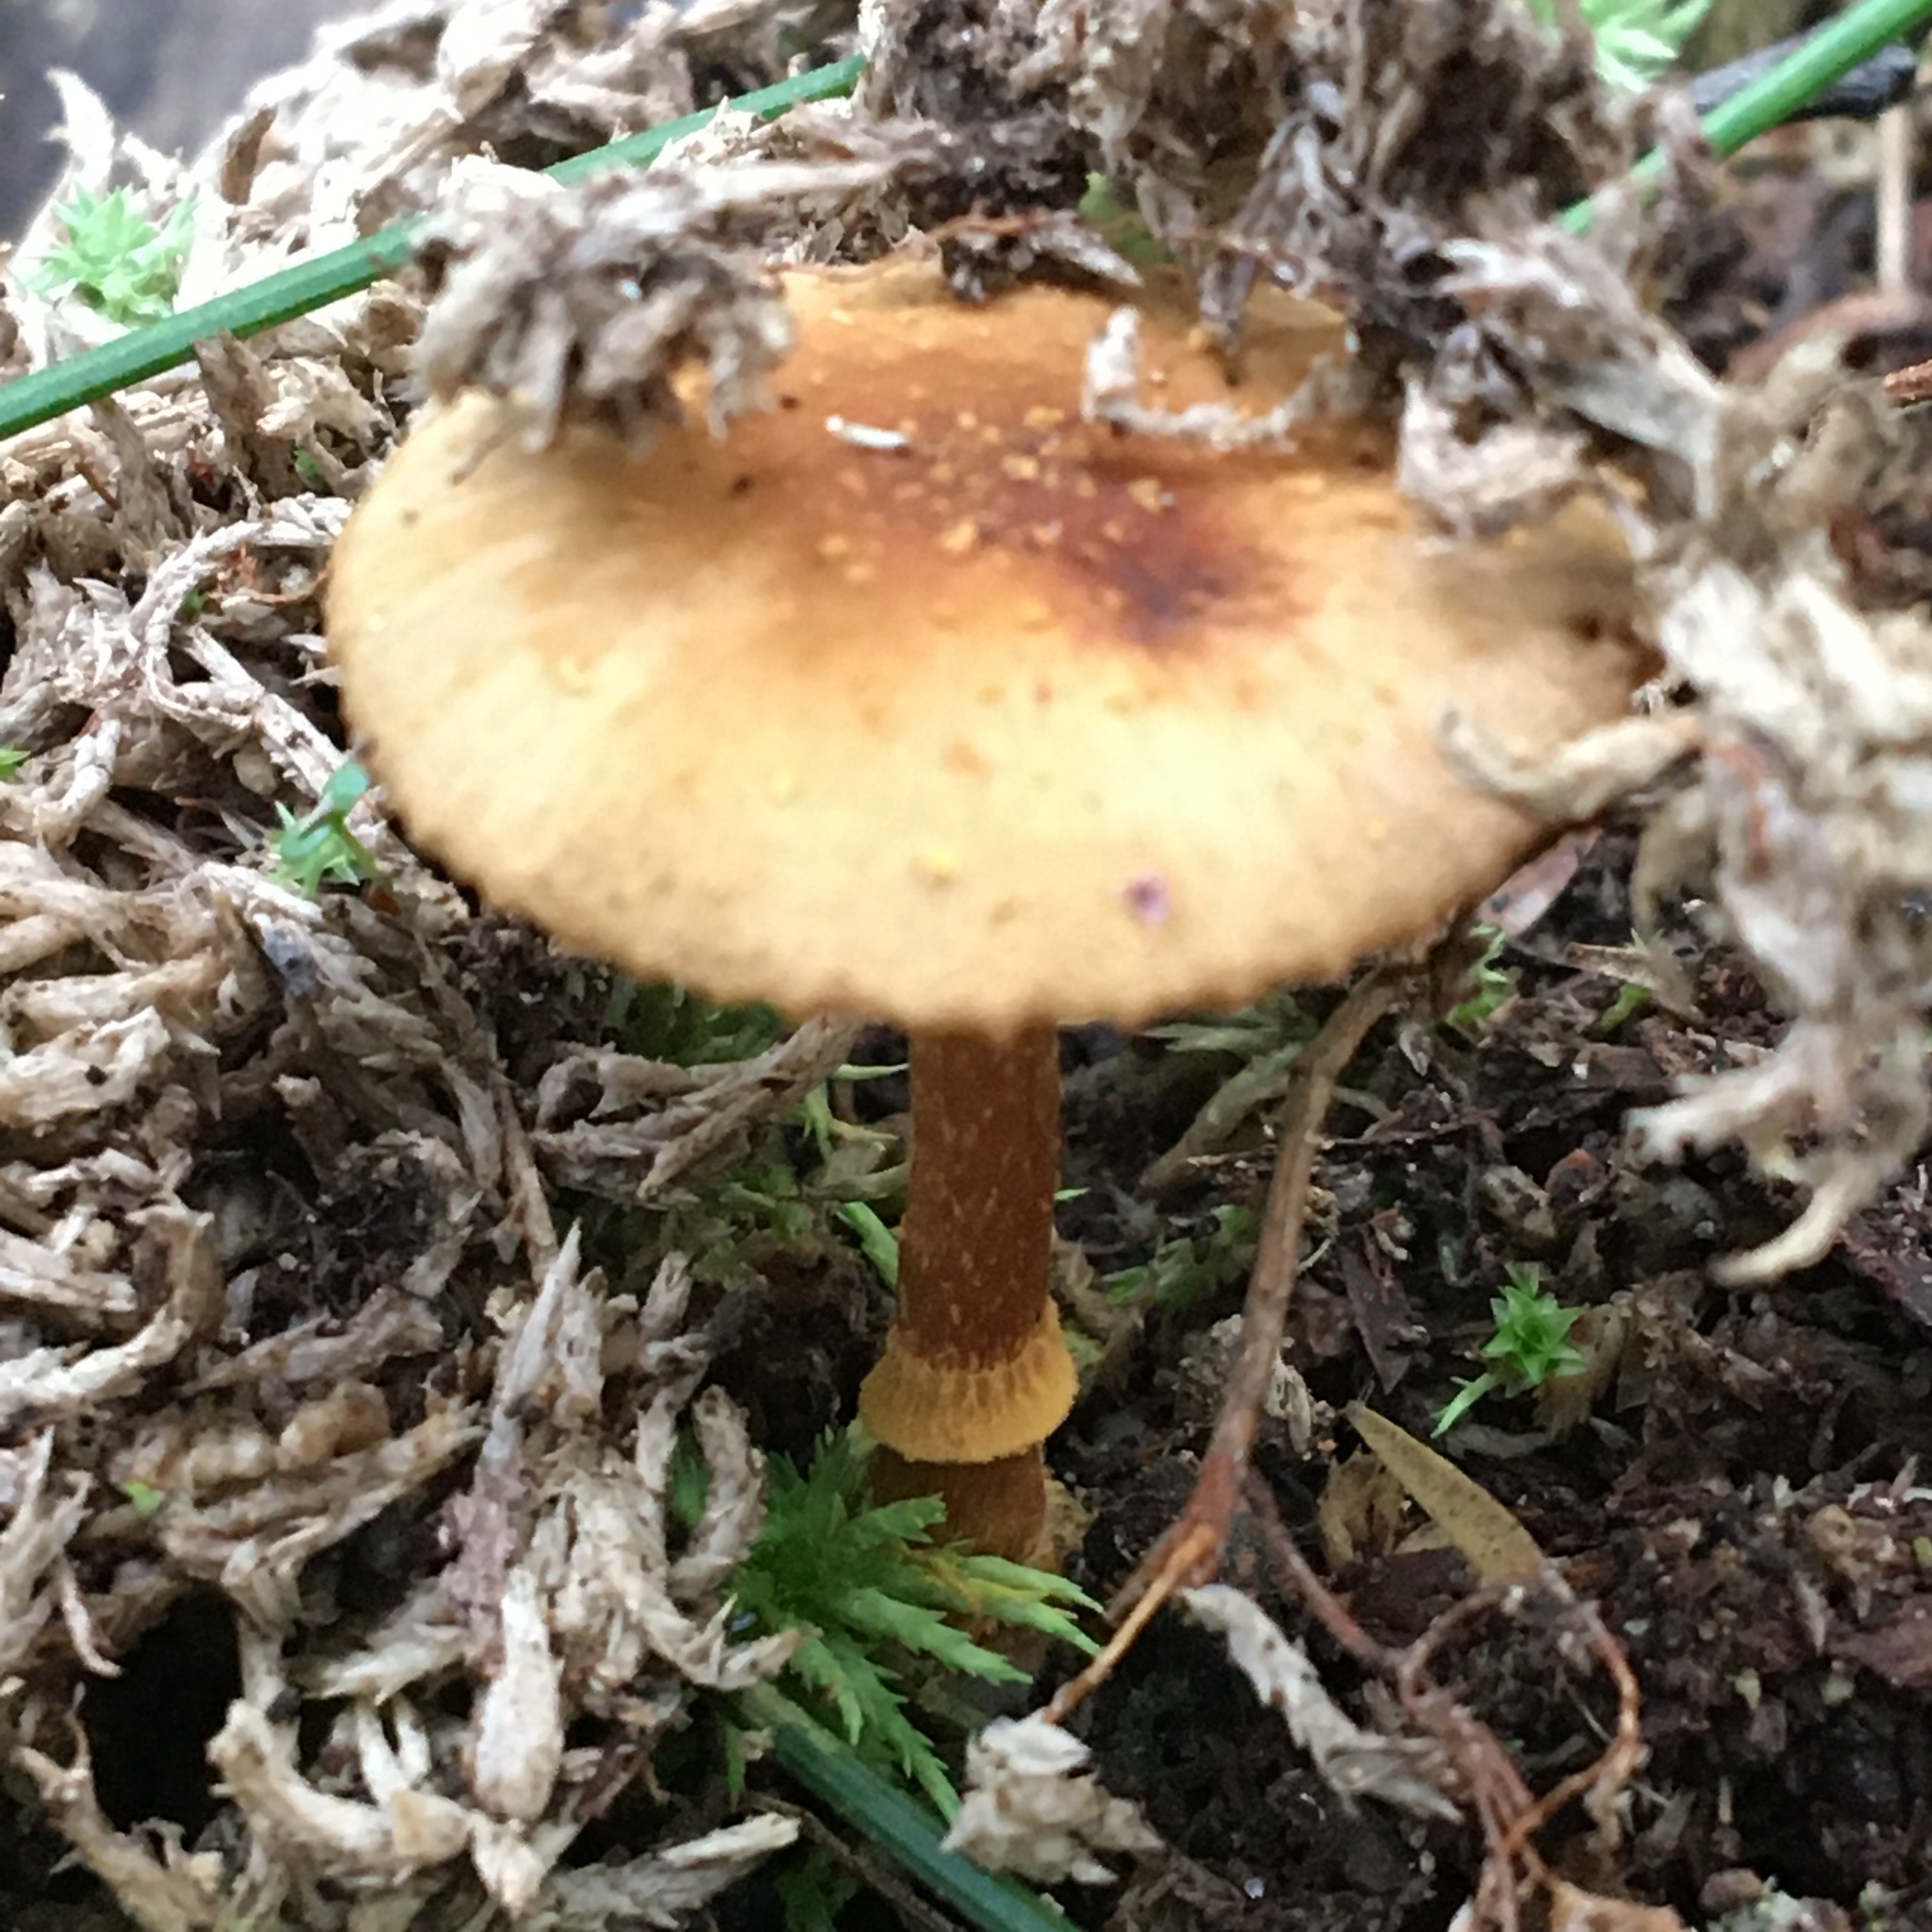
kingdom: Fungi
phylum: Basidiomycota
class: Agaricomycetes
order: Agaricales
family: Bolbitiaceae
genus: Descolea
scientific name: Descolea recedens
